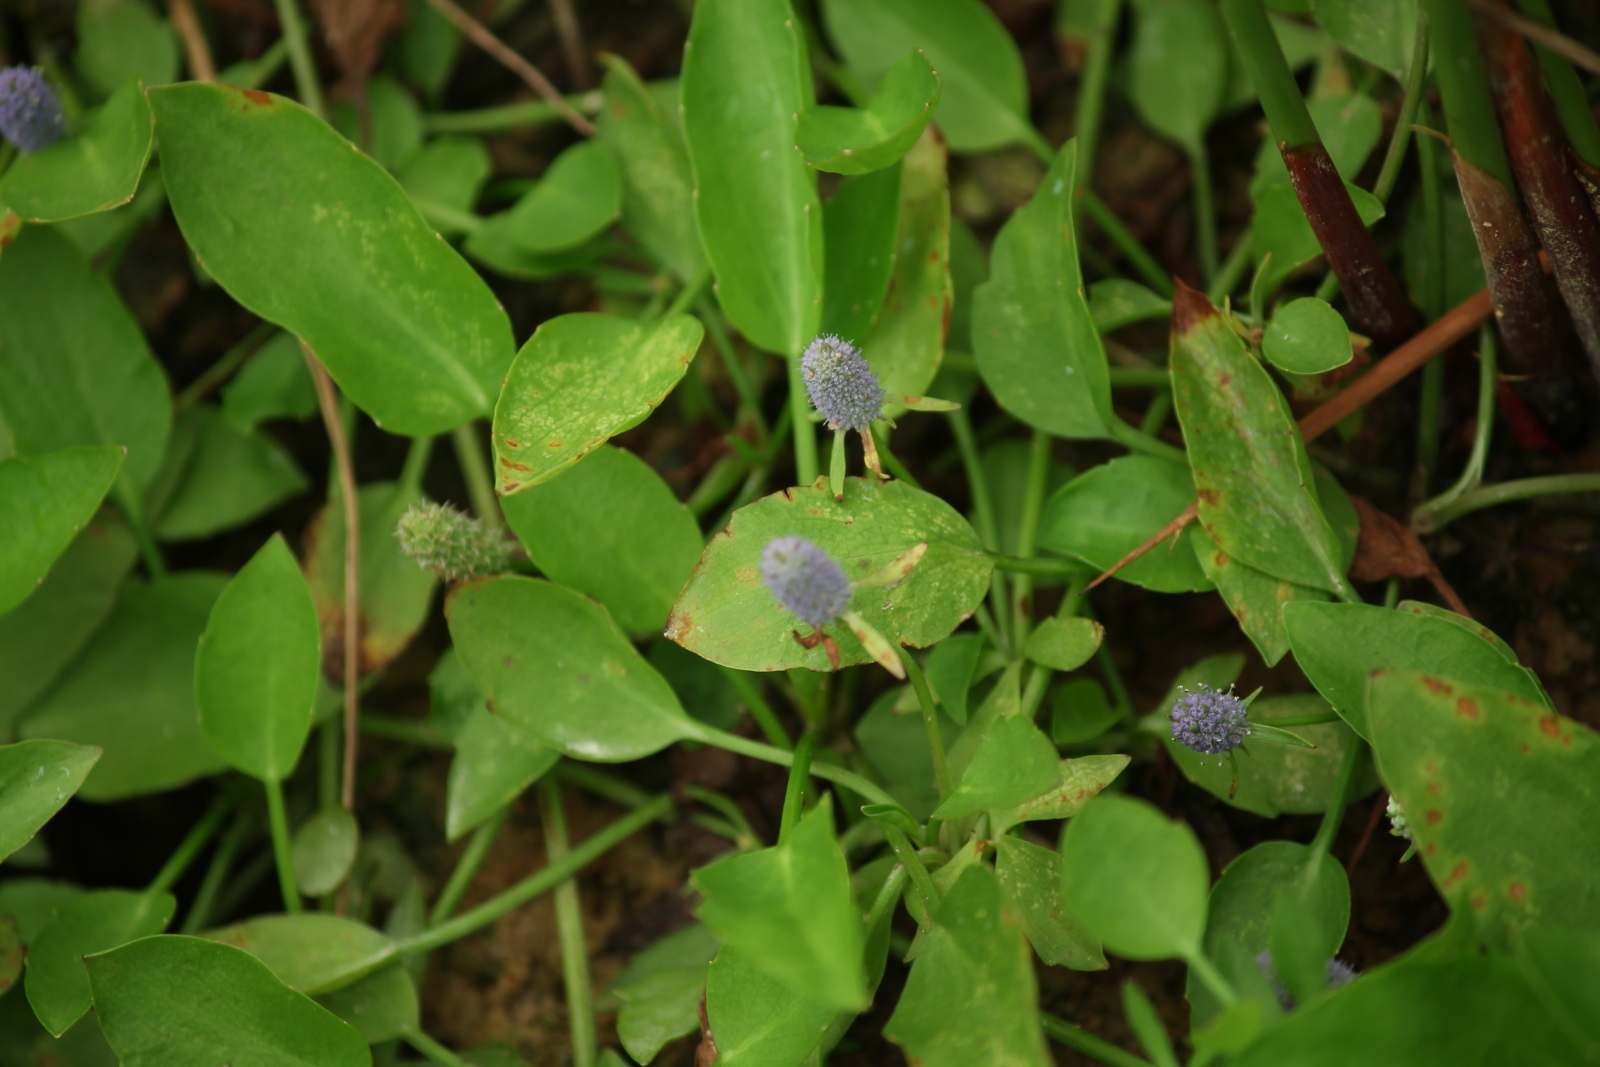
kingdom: Plantae
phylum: Tracheophyta
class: Magnoliopsida
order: Apiales
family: Apiaceae
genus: Eryngium
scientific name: Eryngium prostratum
